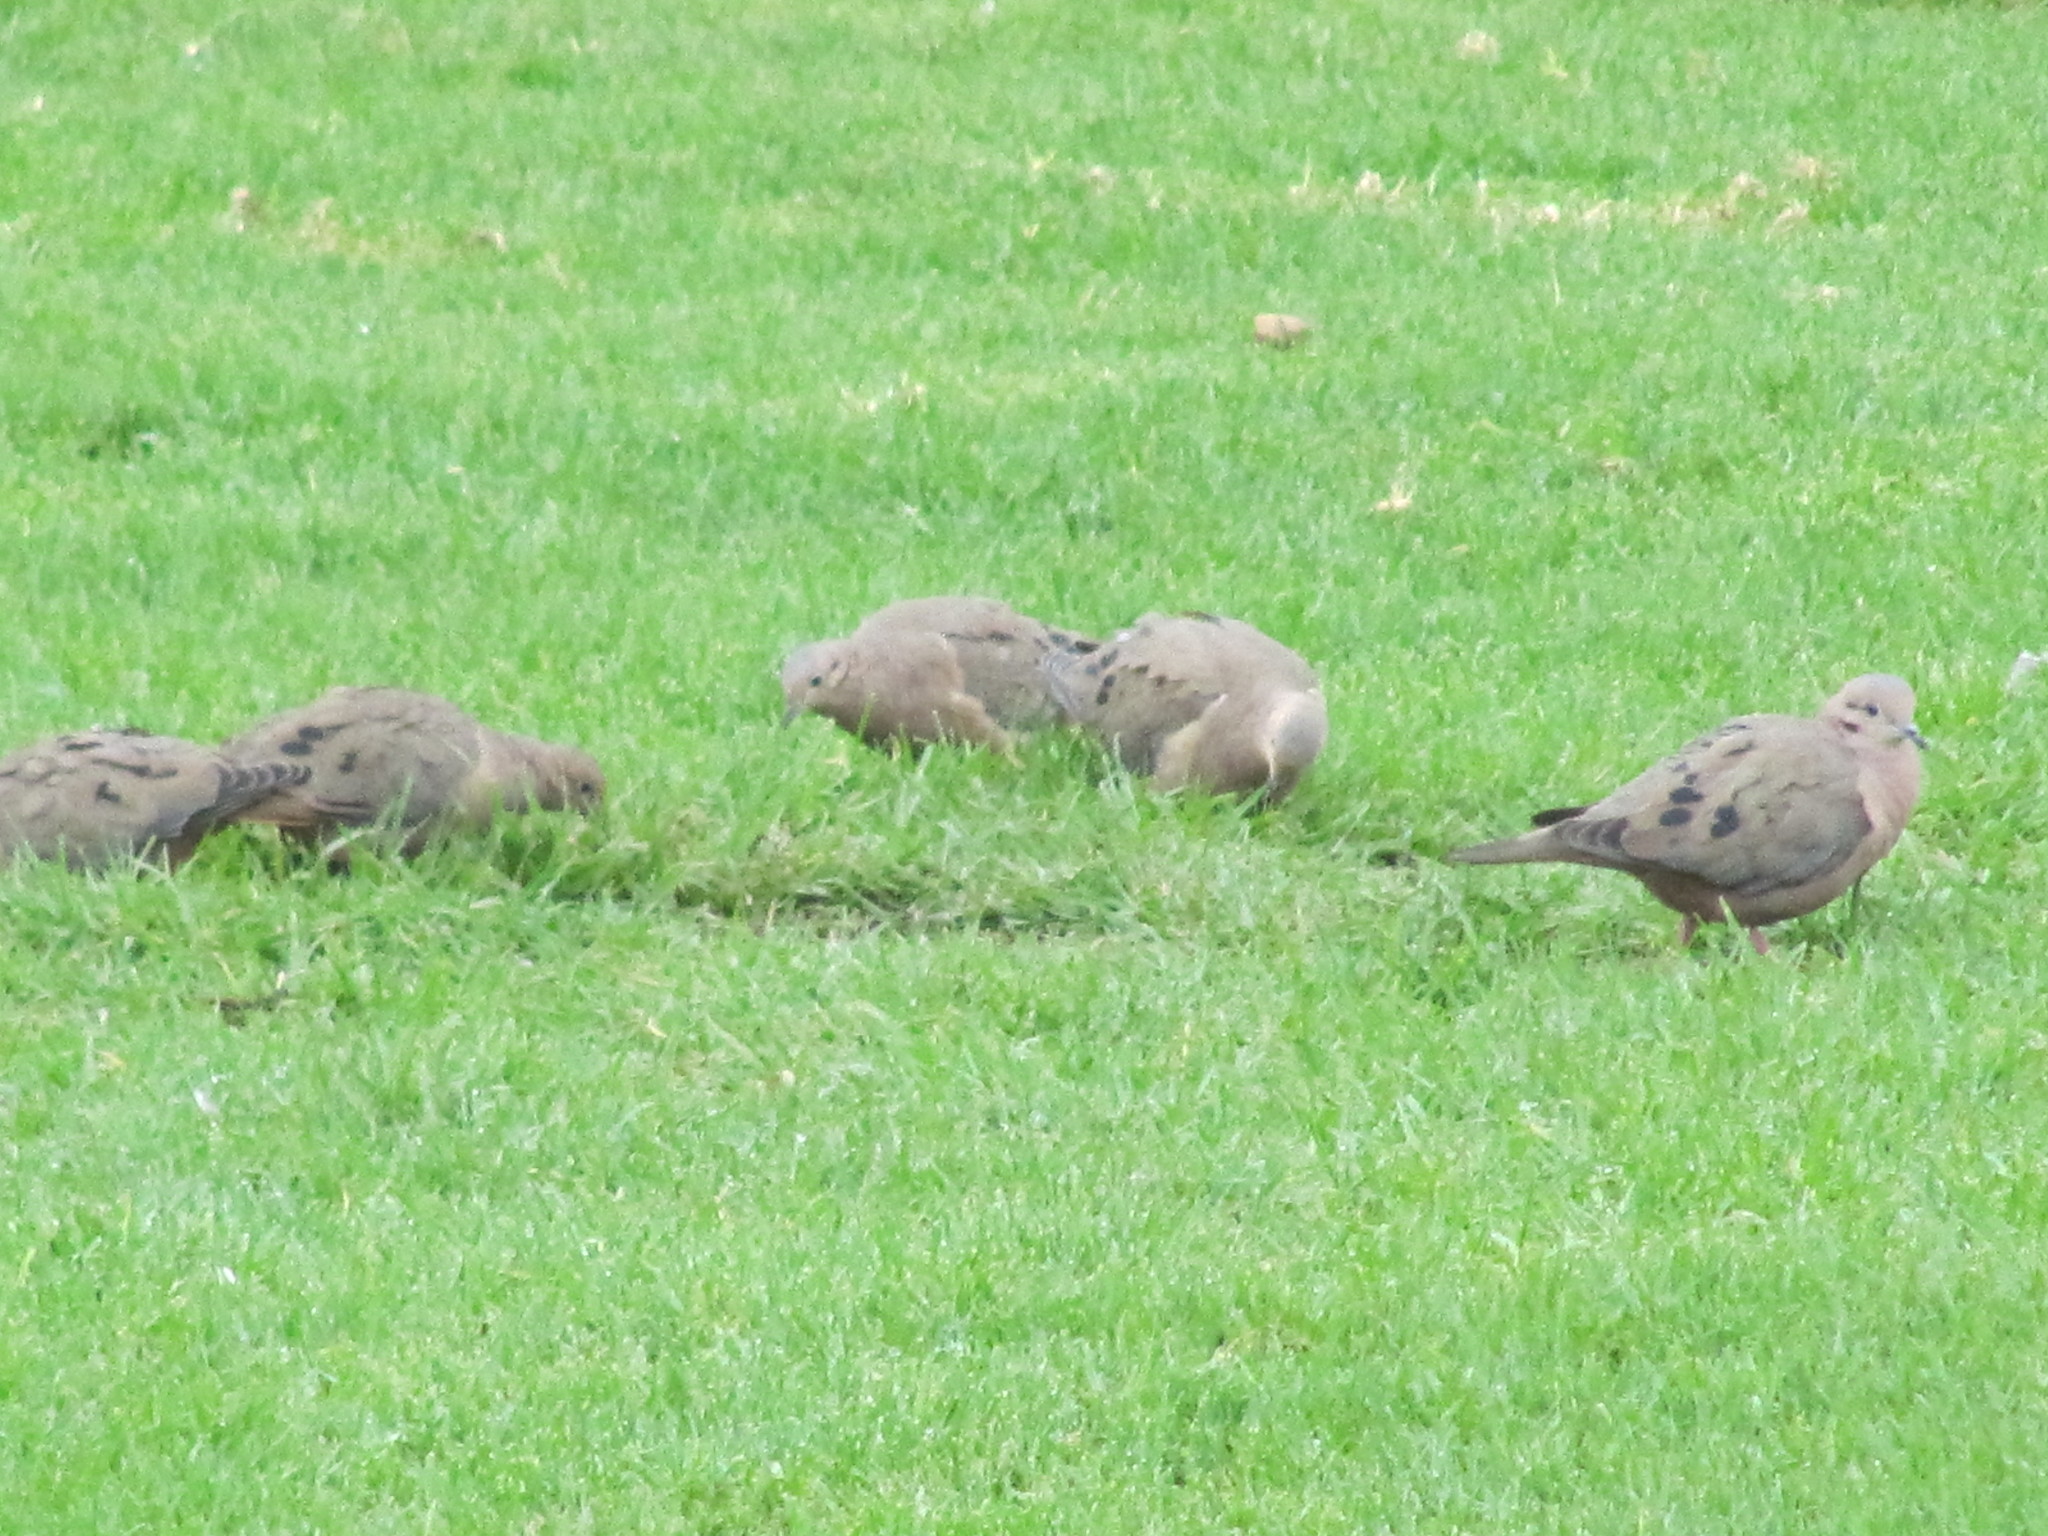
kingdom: Animalia
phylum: Chordata
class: Aves
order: Columbiformes
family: Columbidae
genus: Zenaida
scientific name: Zenaida auriculata
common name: Eared dove
